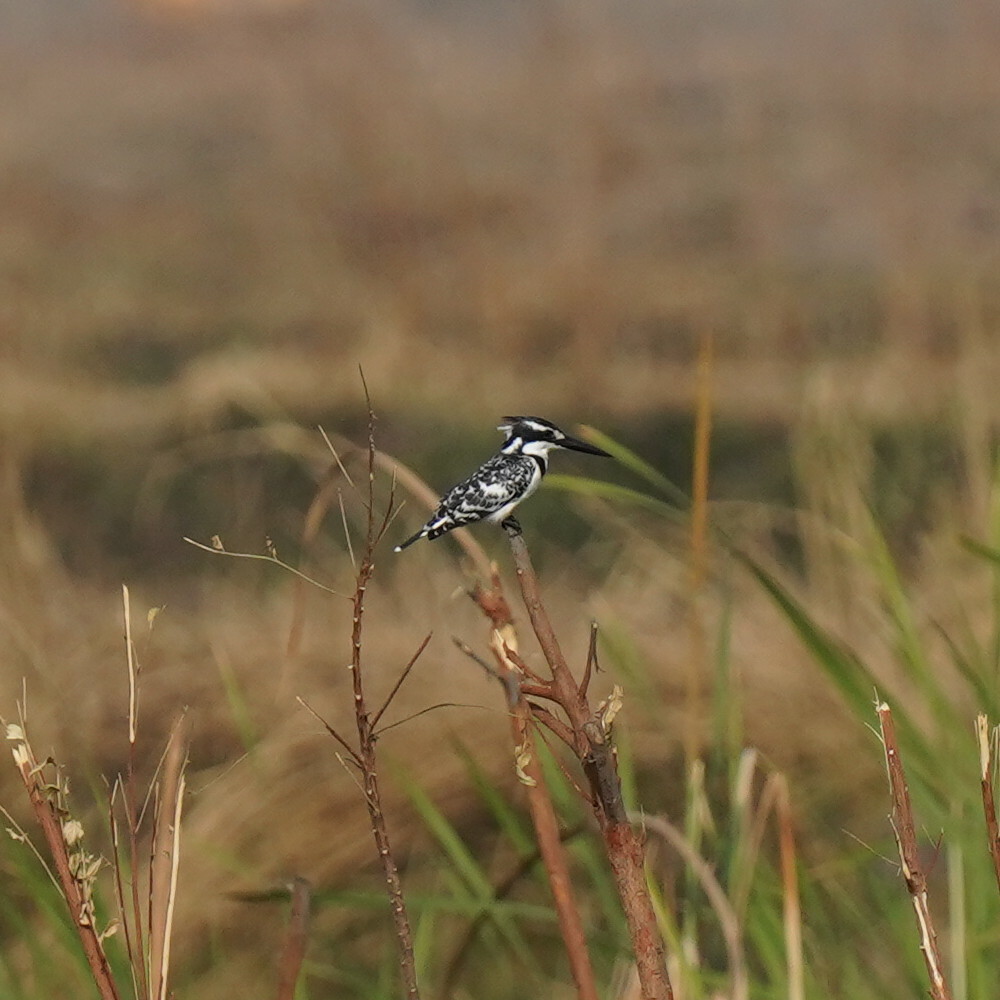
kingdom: Animalia
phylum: Chordata
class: Aves
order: Coraciiformes
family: Alcedinidae
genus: Ceryle
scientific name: Ceryle rudis
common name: Pied kingfisher
